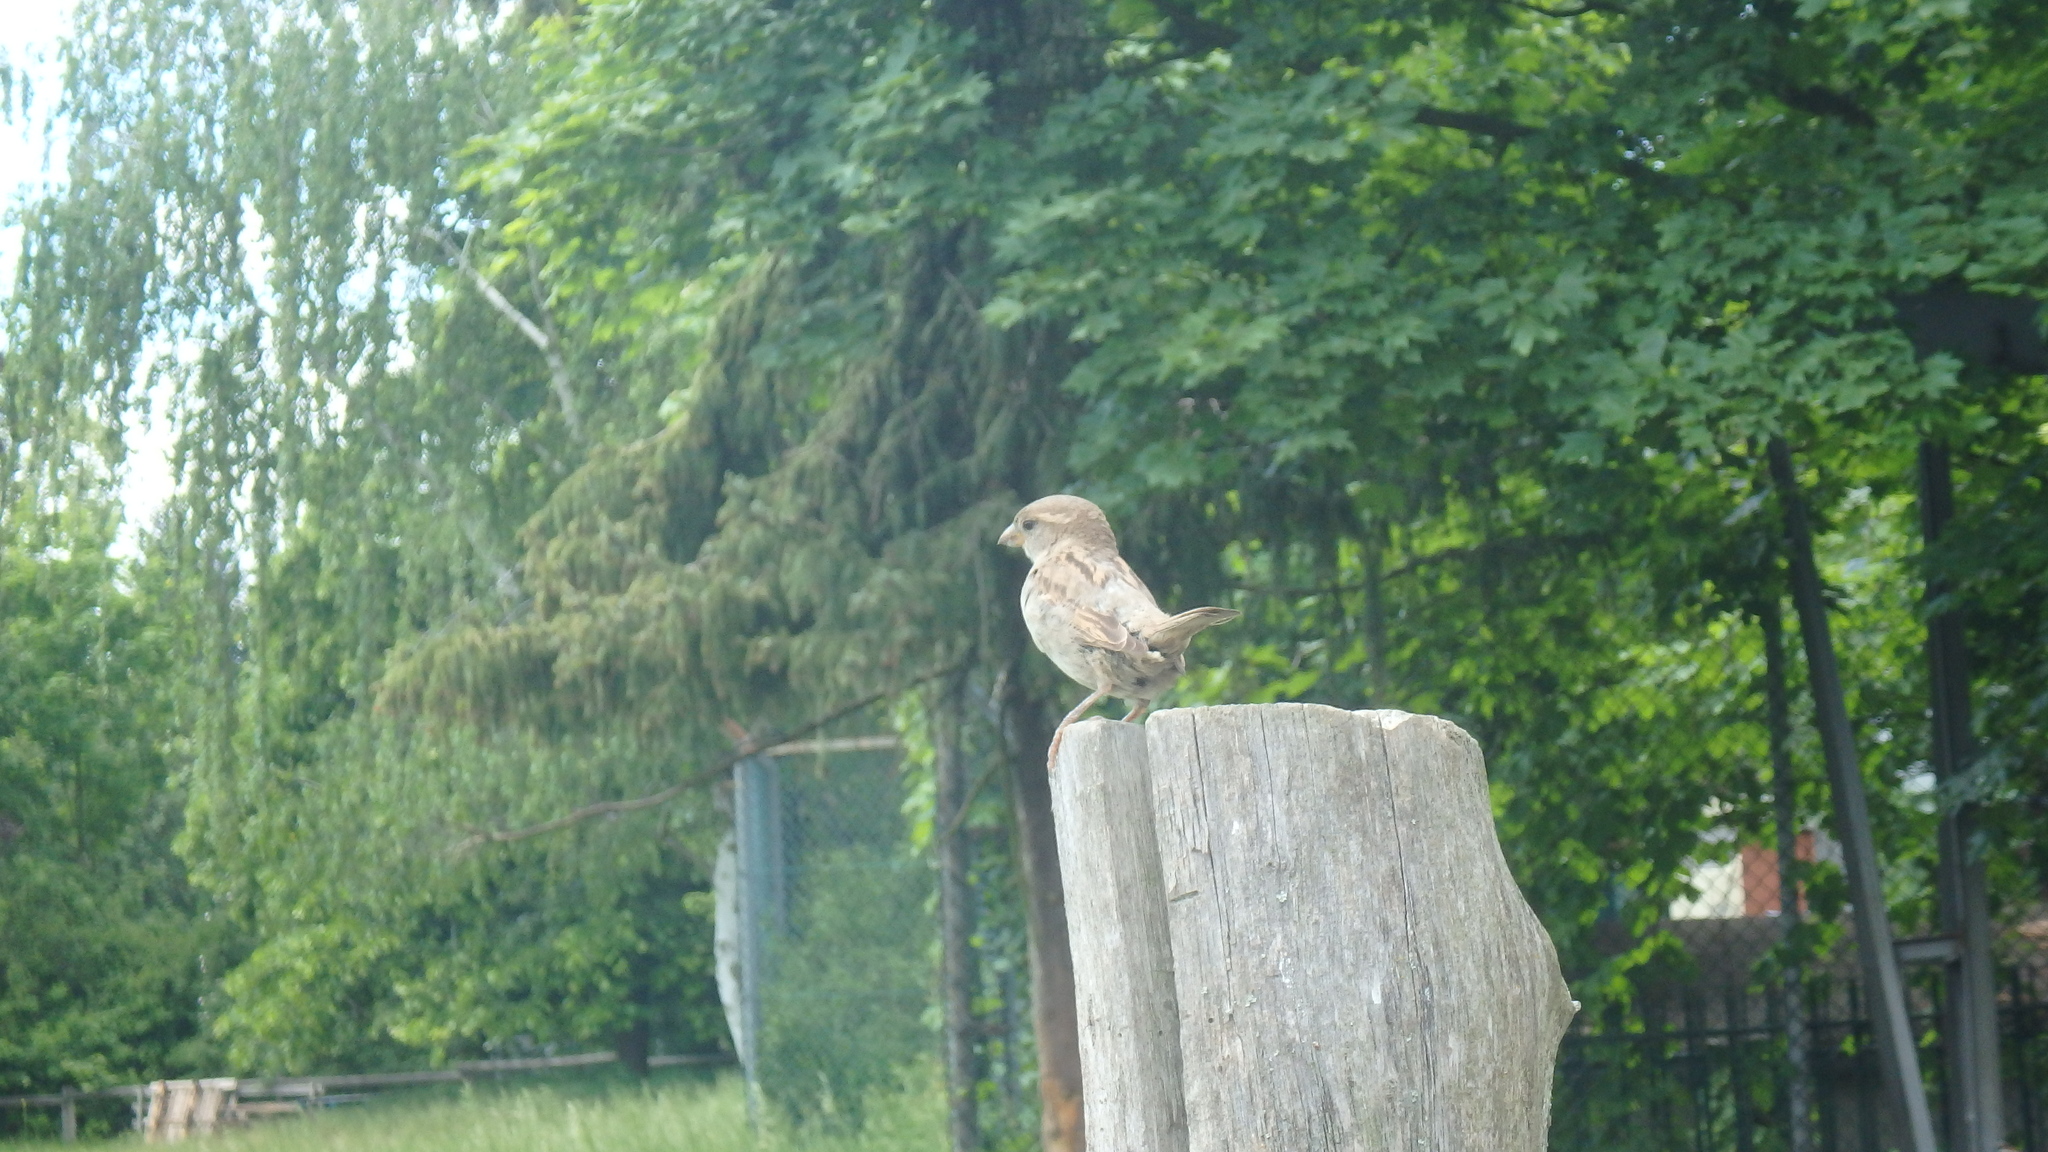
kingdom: Animalia
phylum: Chordata
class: Aves
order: Passeriformes
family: Passeridae
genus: Passer
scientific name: Passer domesticus
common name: House sparrow
